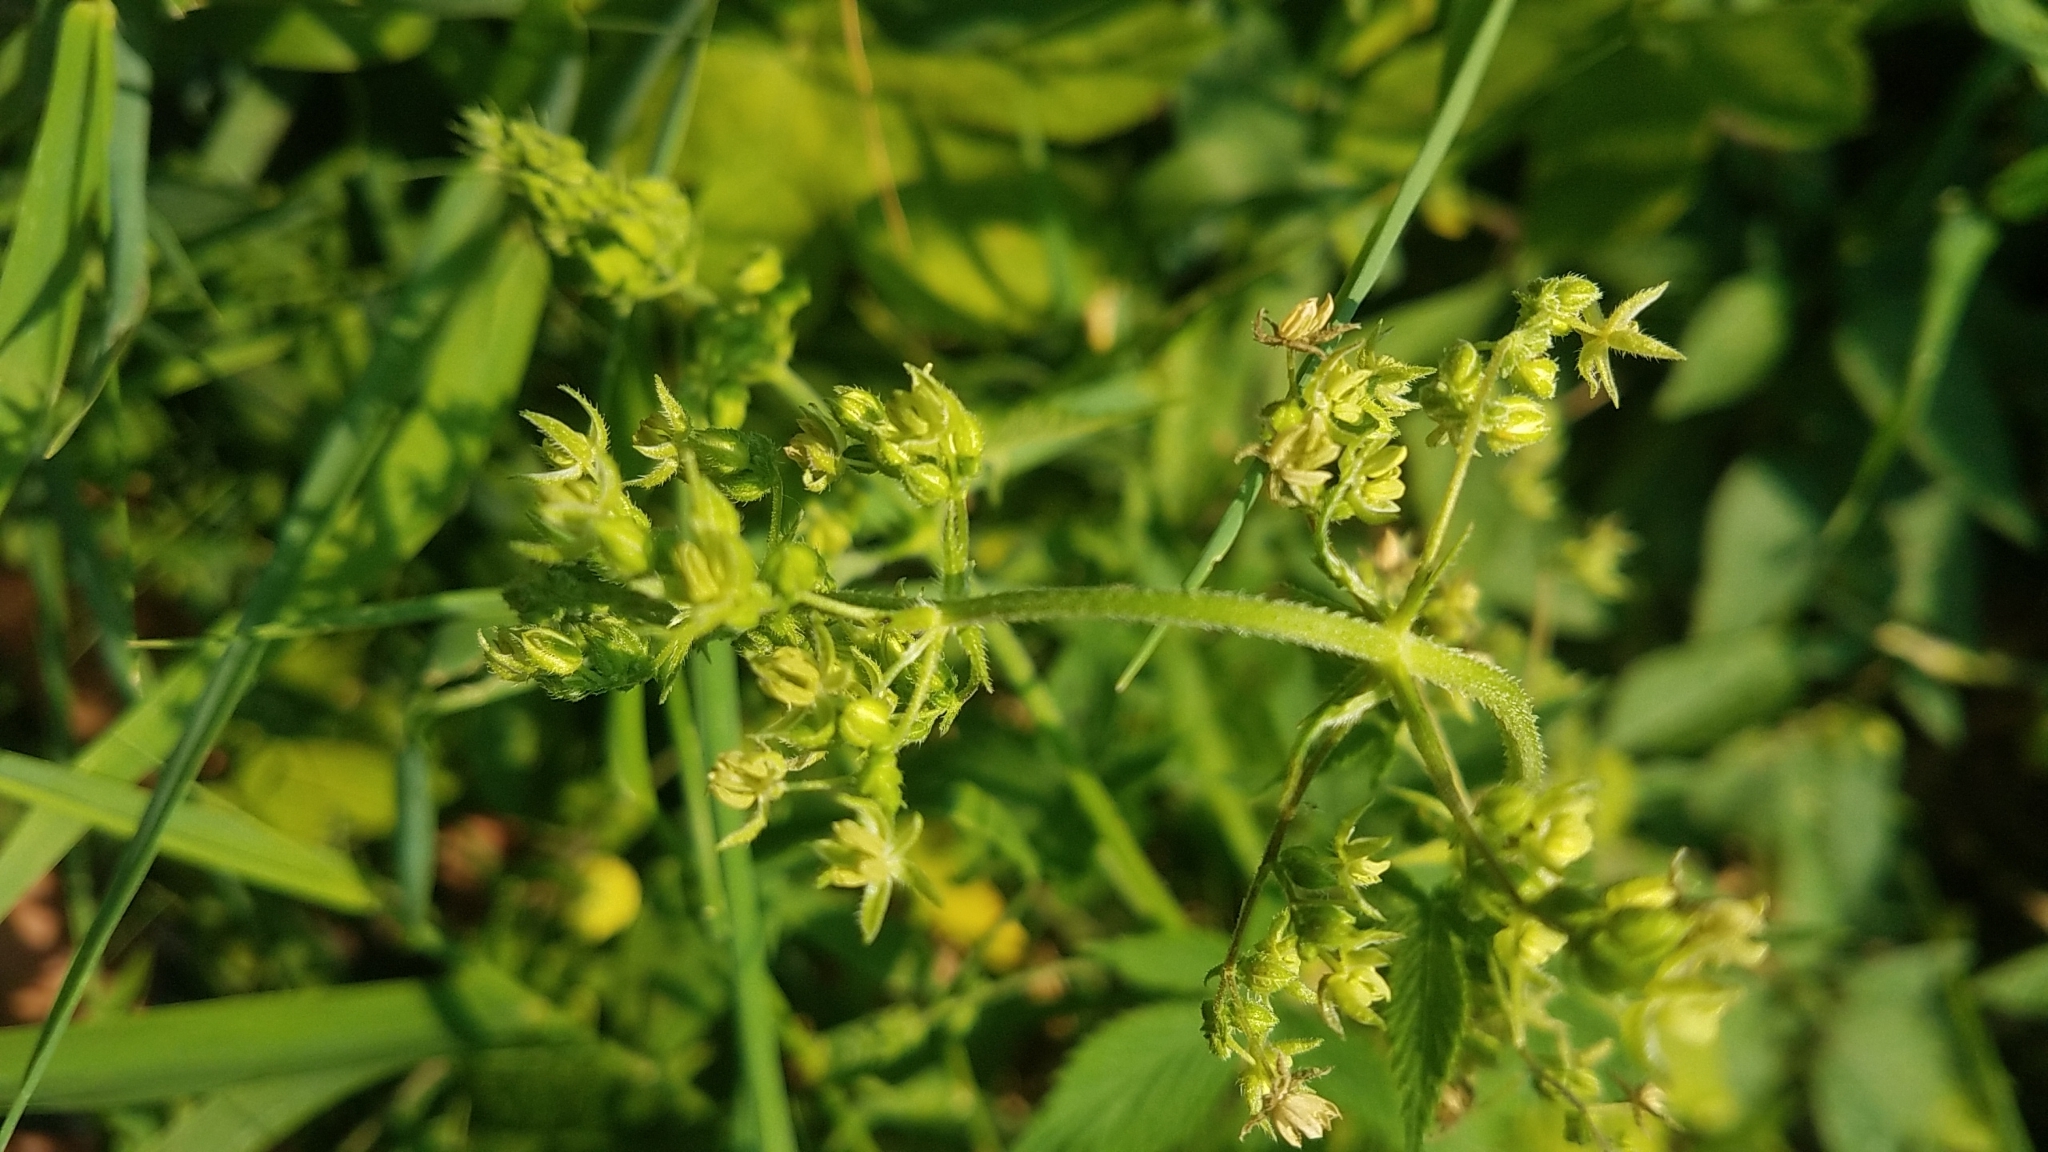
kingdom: Plantae
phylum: Tracheophyta
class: Magnoliopsida
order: Rosales
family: Cannabaceae
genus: Humulus
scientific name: Humulus scandens
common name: Japanese hop
